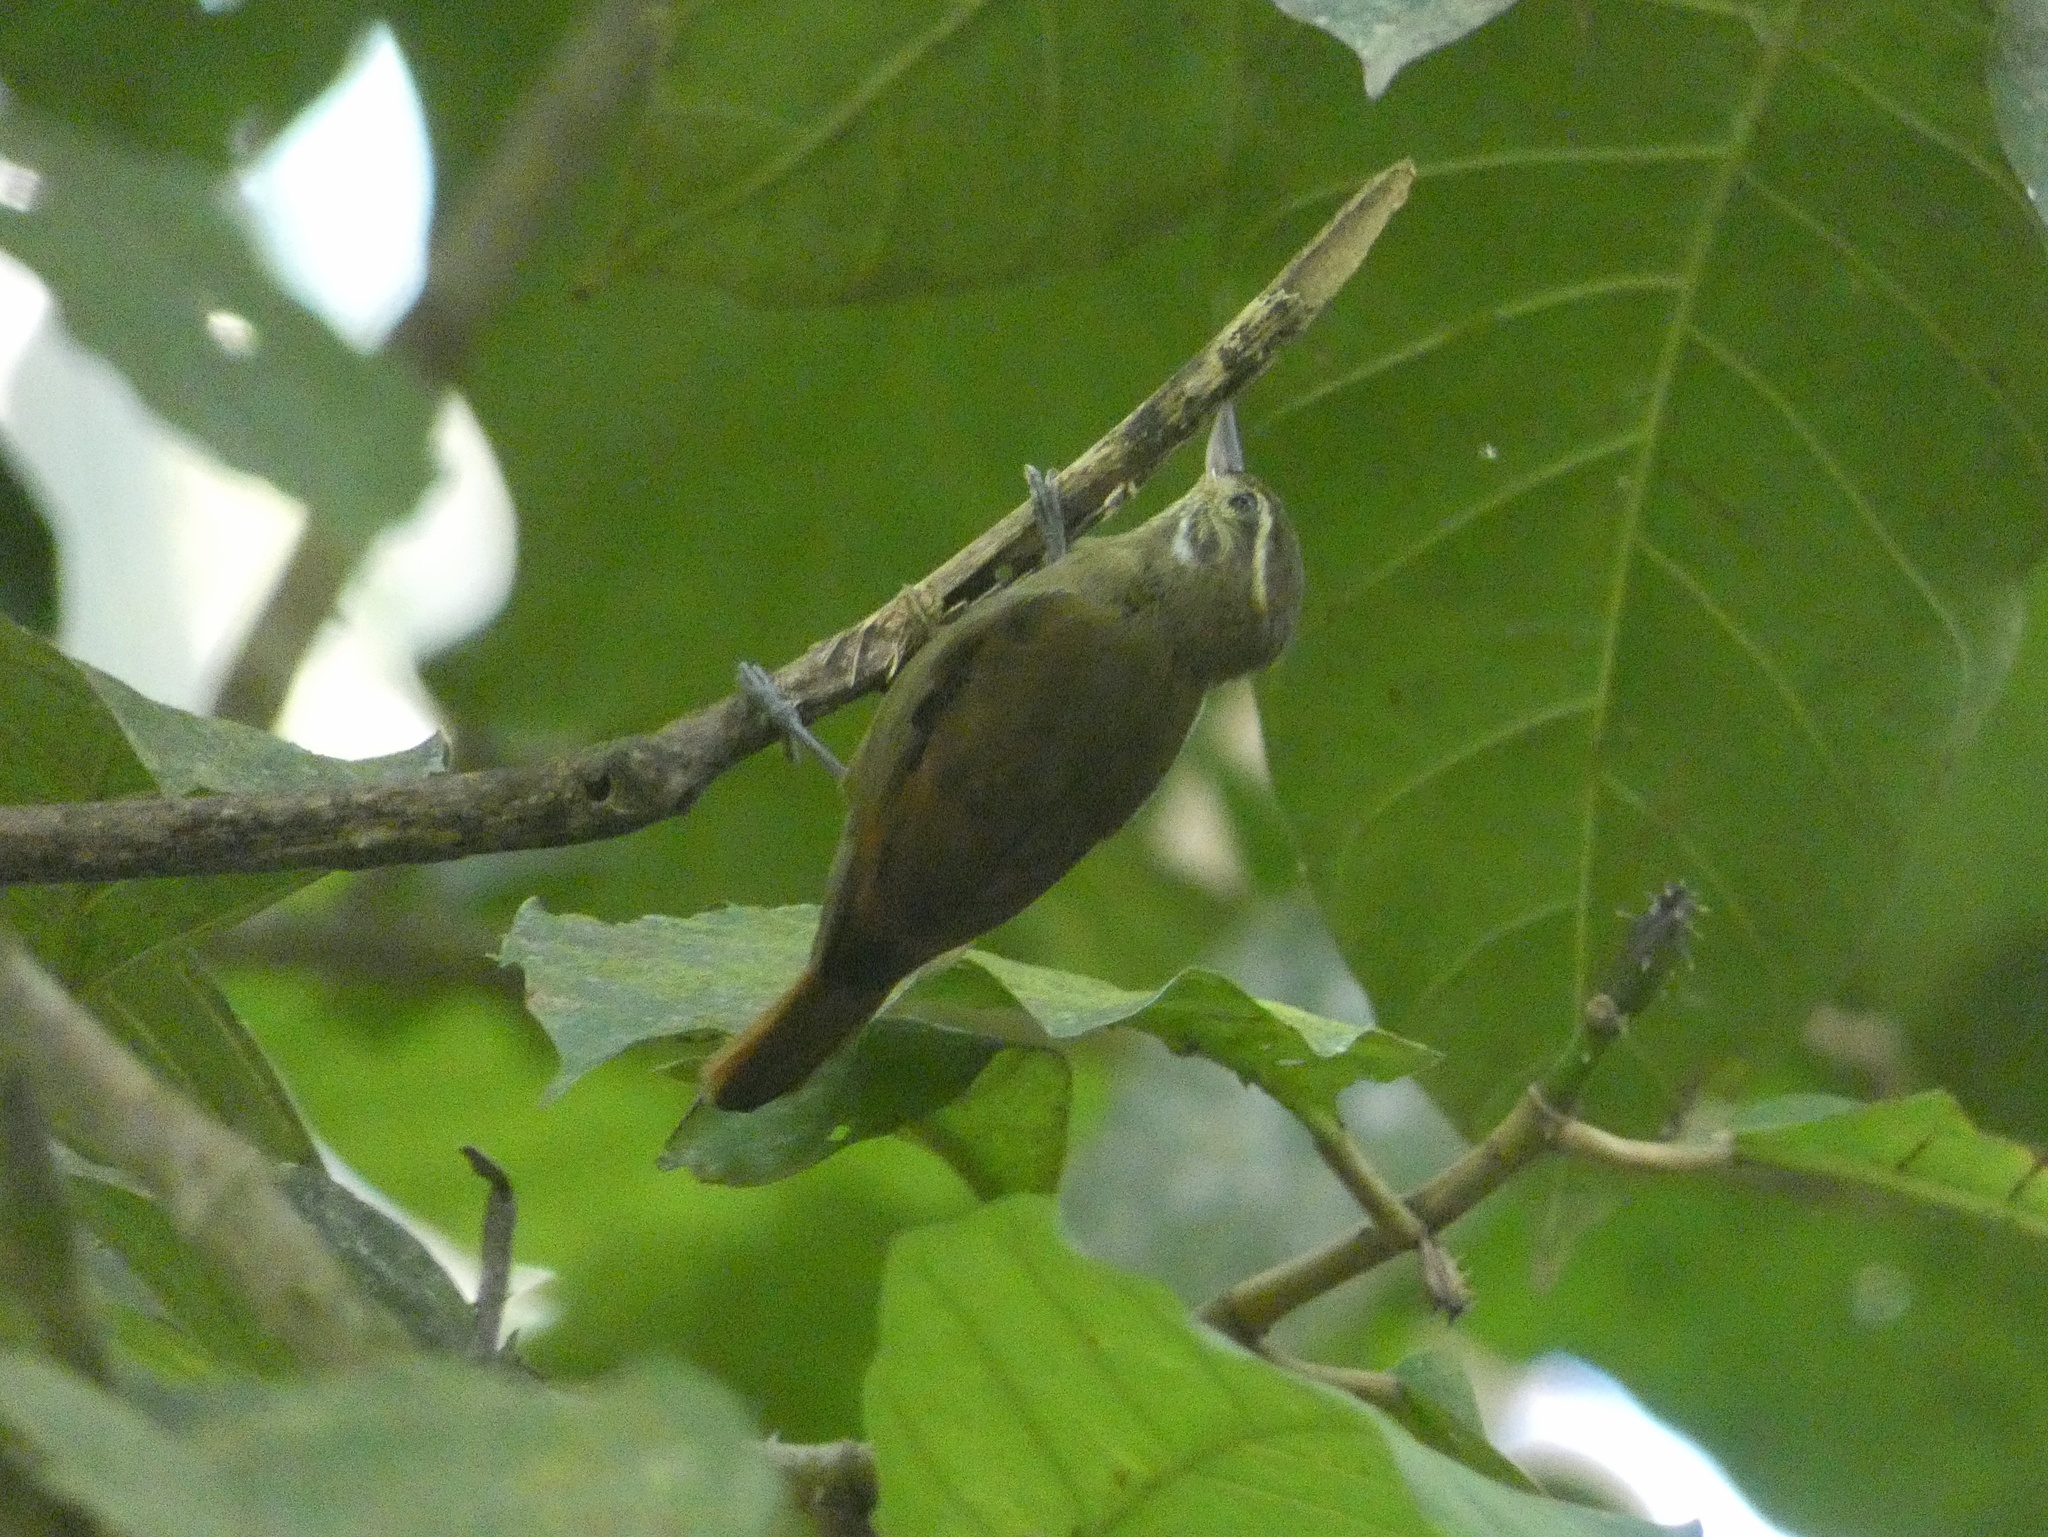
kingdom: Animalia
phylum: Chordata
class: Aves
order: Passeriformes
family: Furnariidae
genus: Xenops
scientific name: Xenops minutus
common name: Plain xenops
